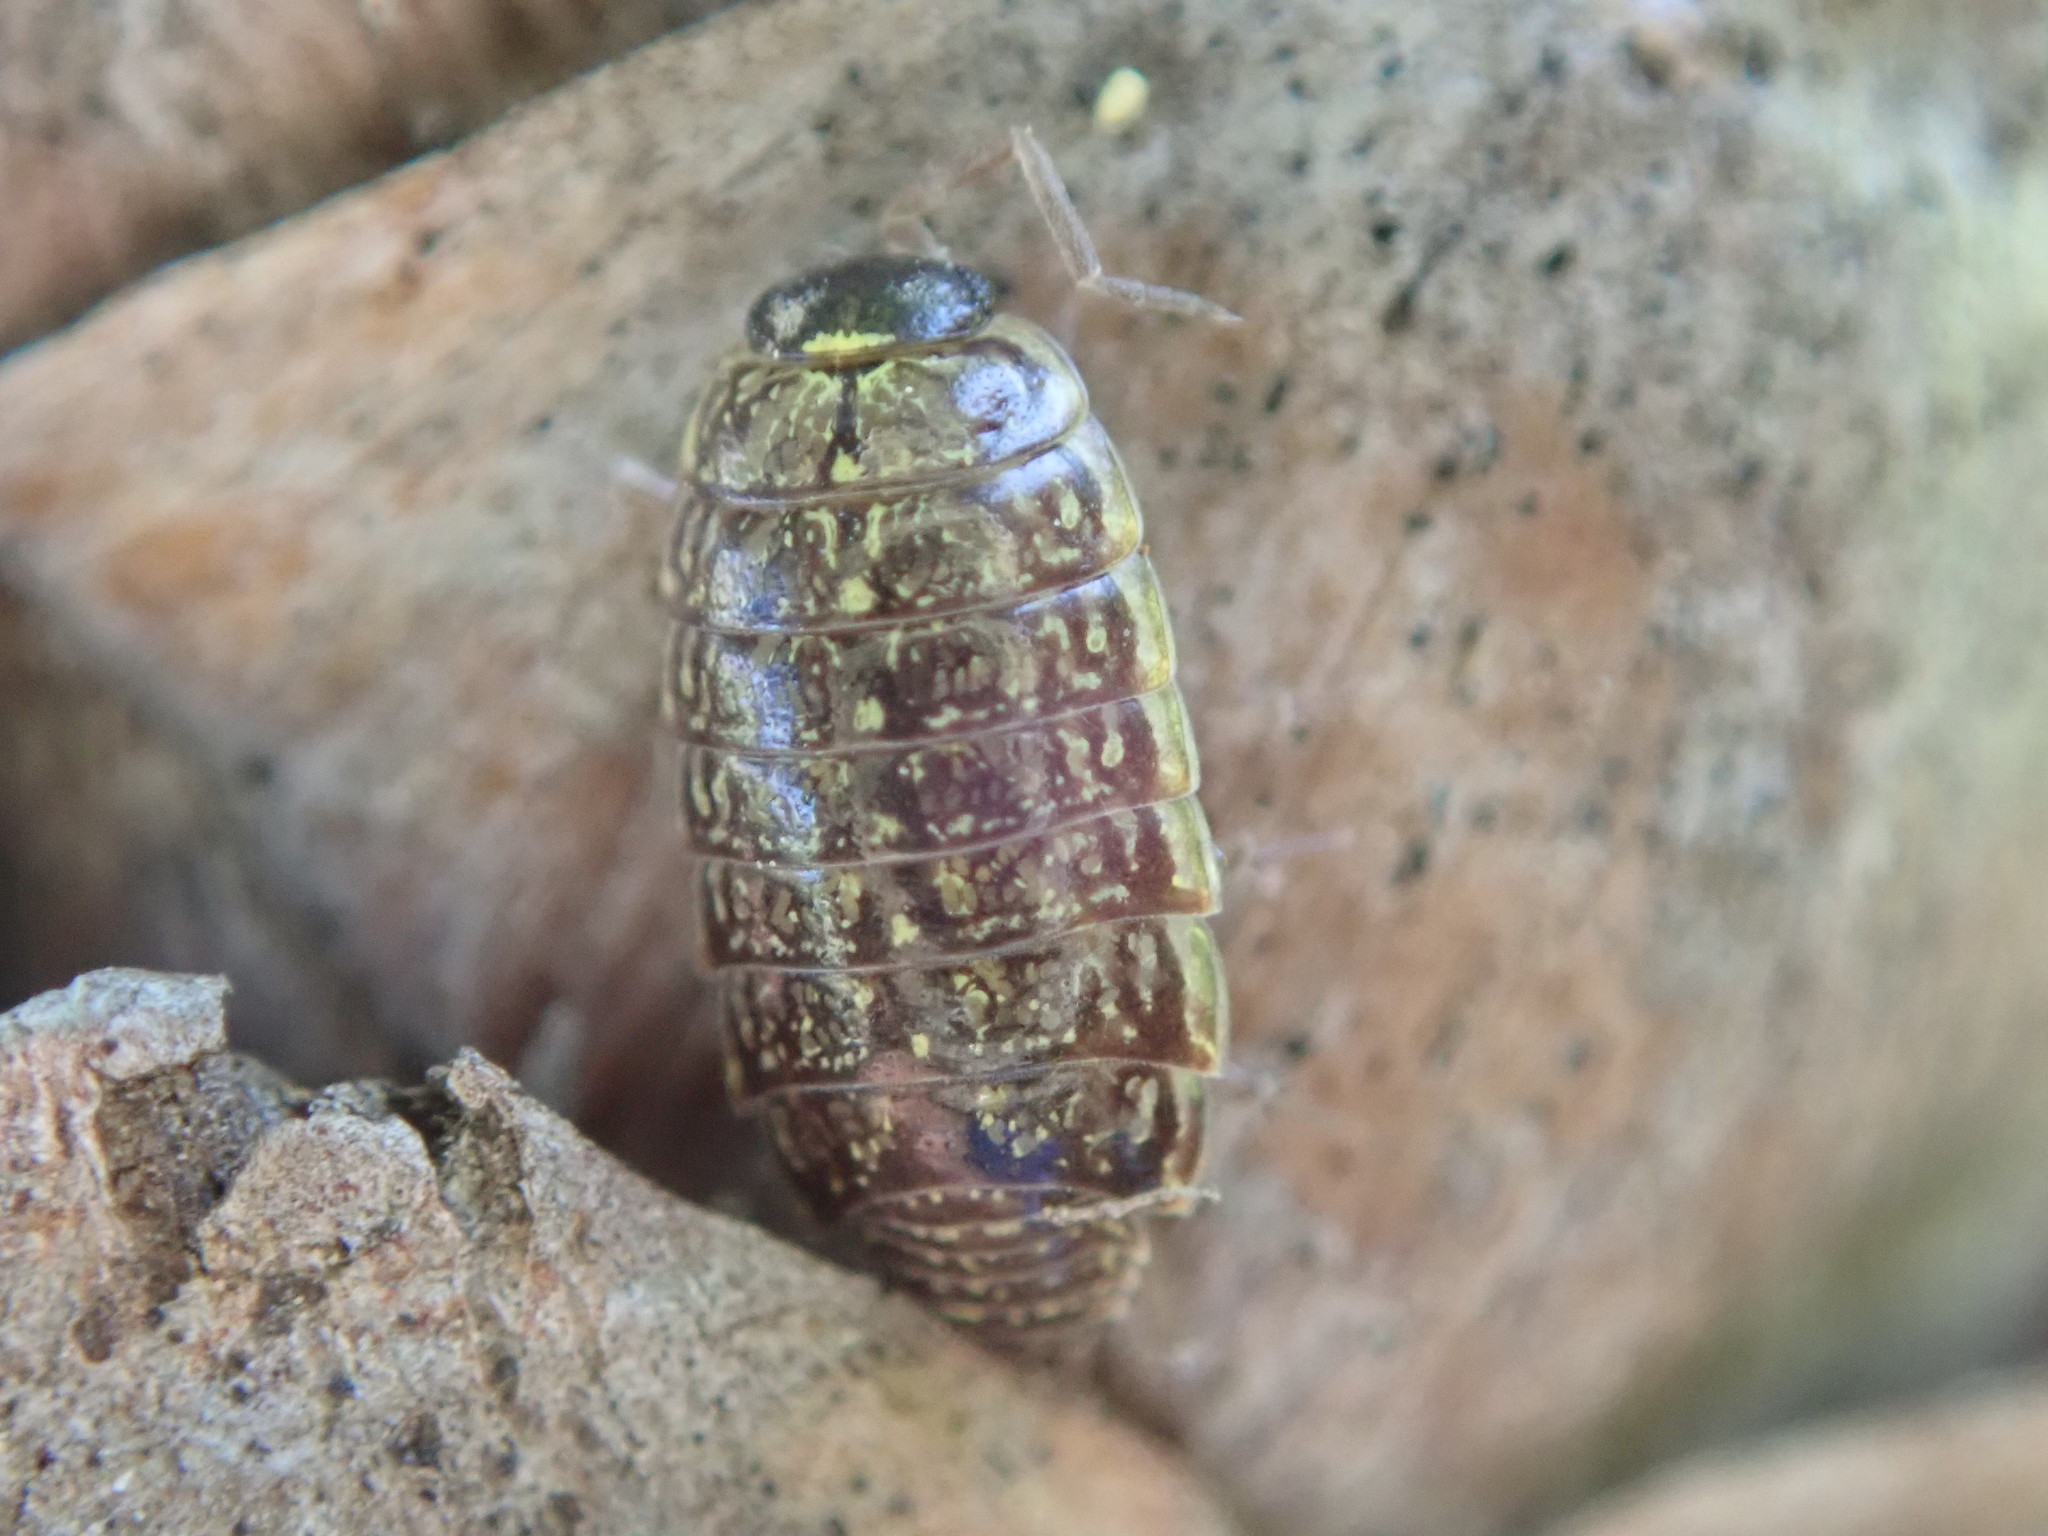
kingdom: Animalia
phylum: Arthropoda
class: Malacostraca
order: Isopoda
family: Philosciidae
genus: Philoscia
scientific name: Philoscia muscorum
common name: Common striped woodlouse
